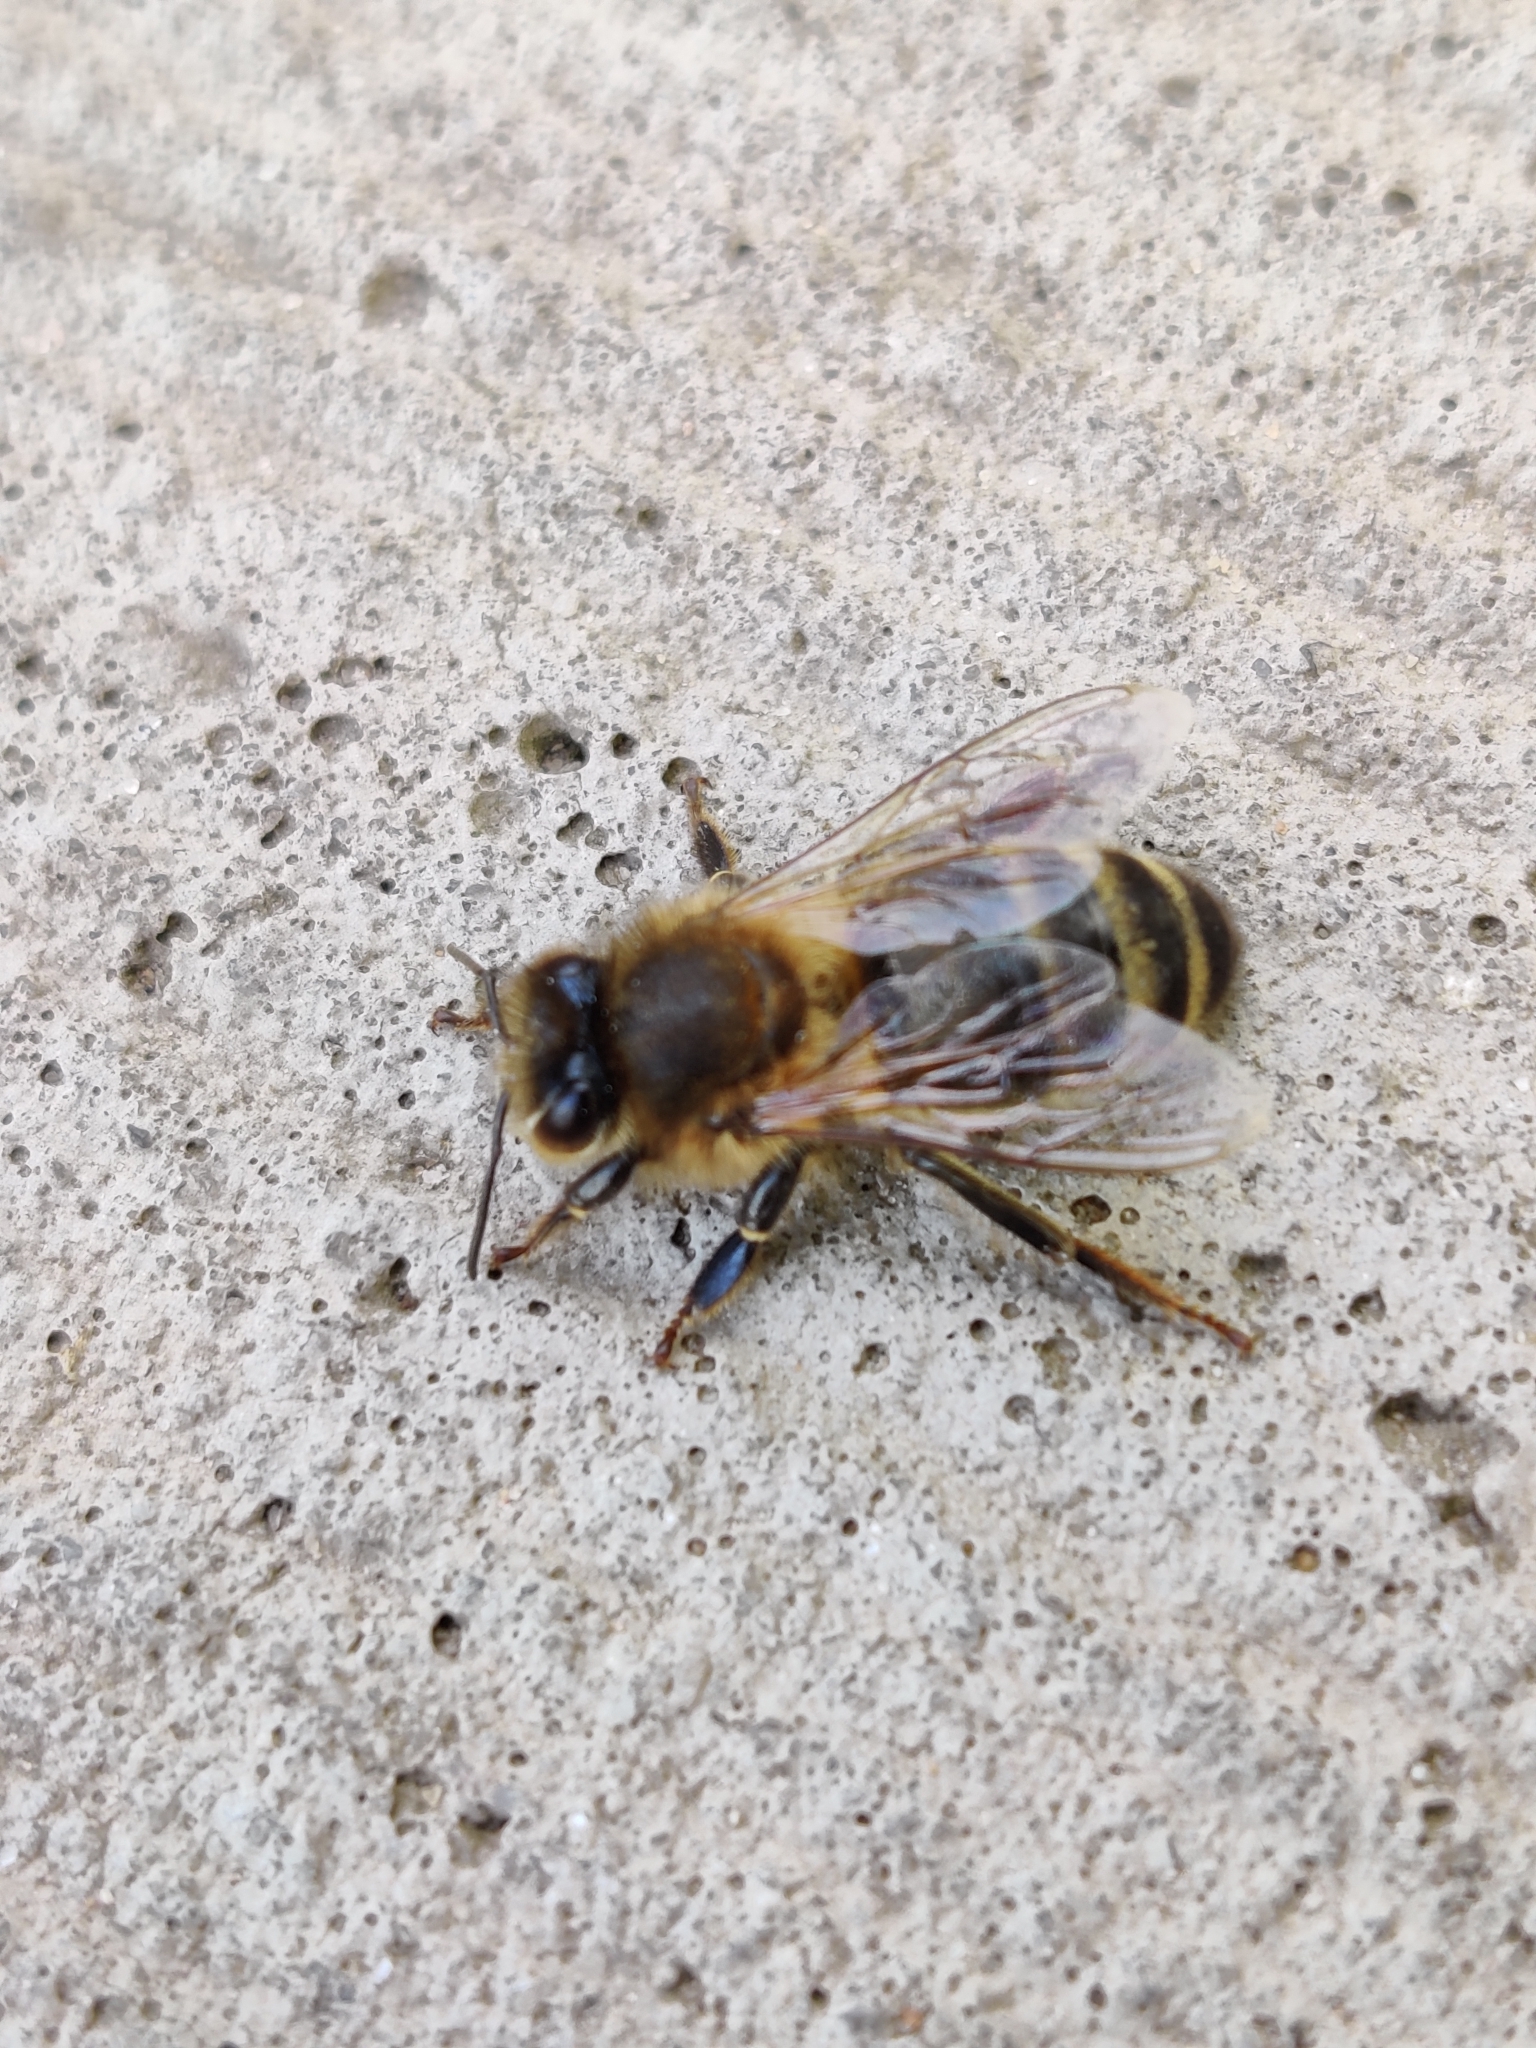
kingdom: Animalia
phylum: Arthropoda
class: Insecta
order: Hymenoptera
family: Apidae
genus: Apis
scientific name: Apis mellifera
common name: Honey bee
